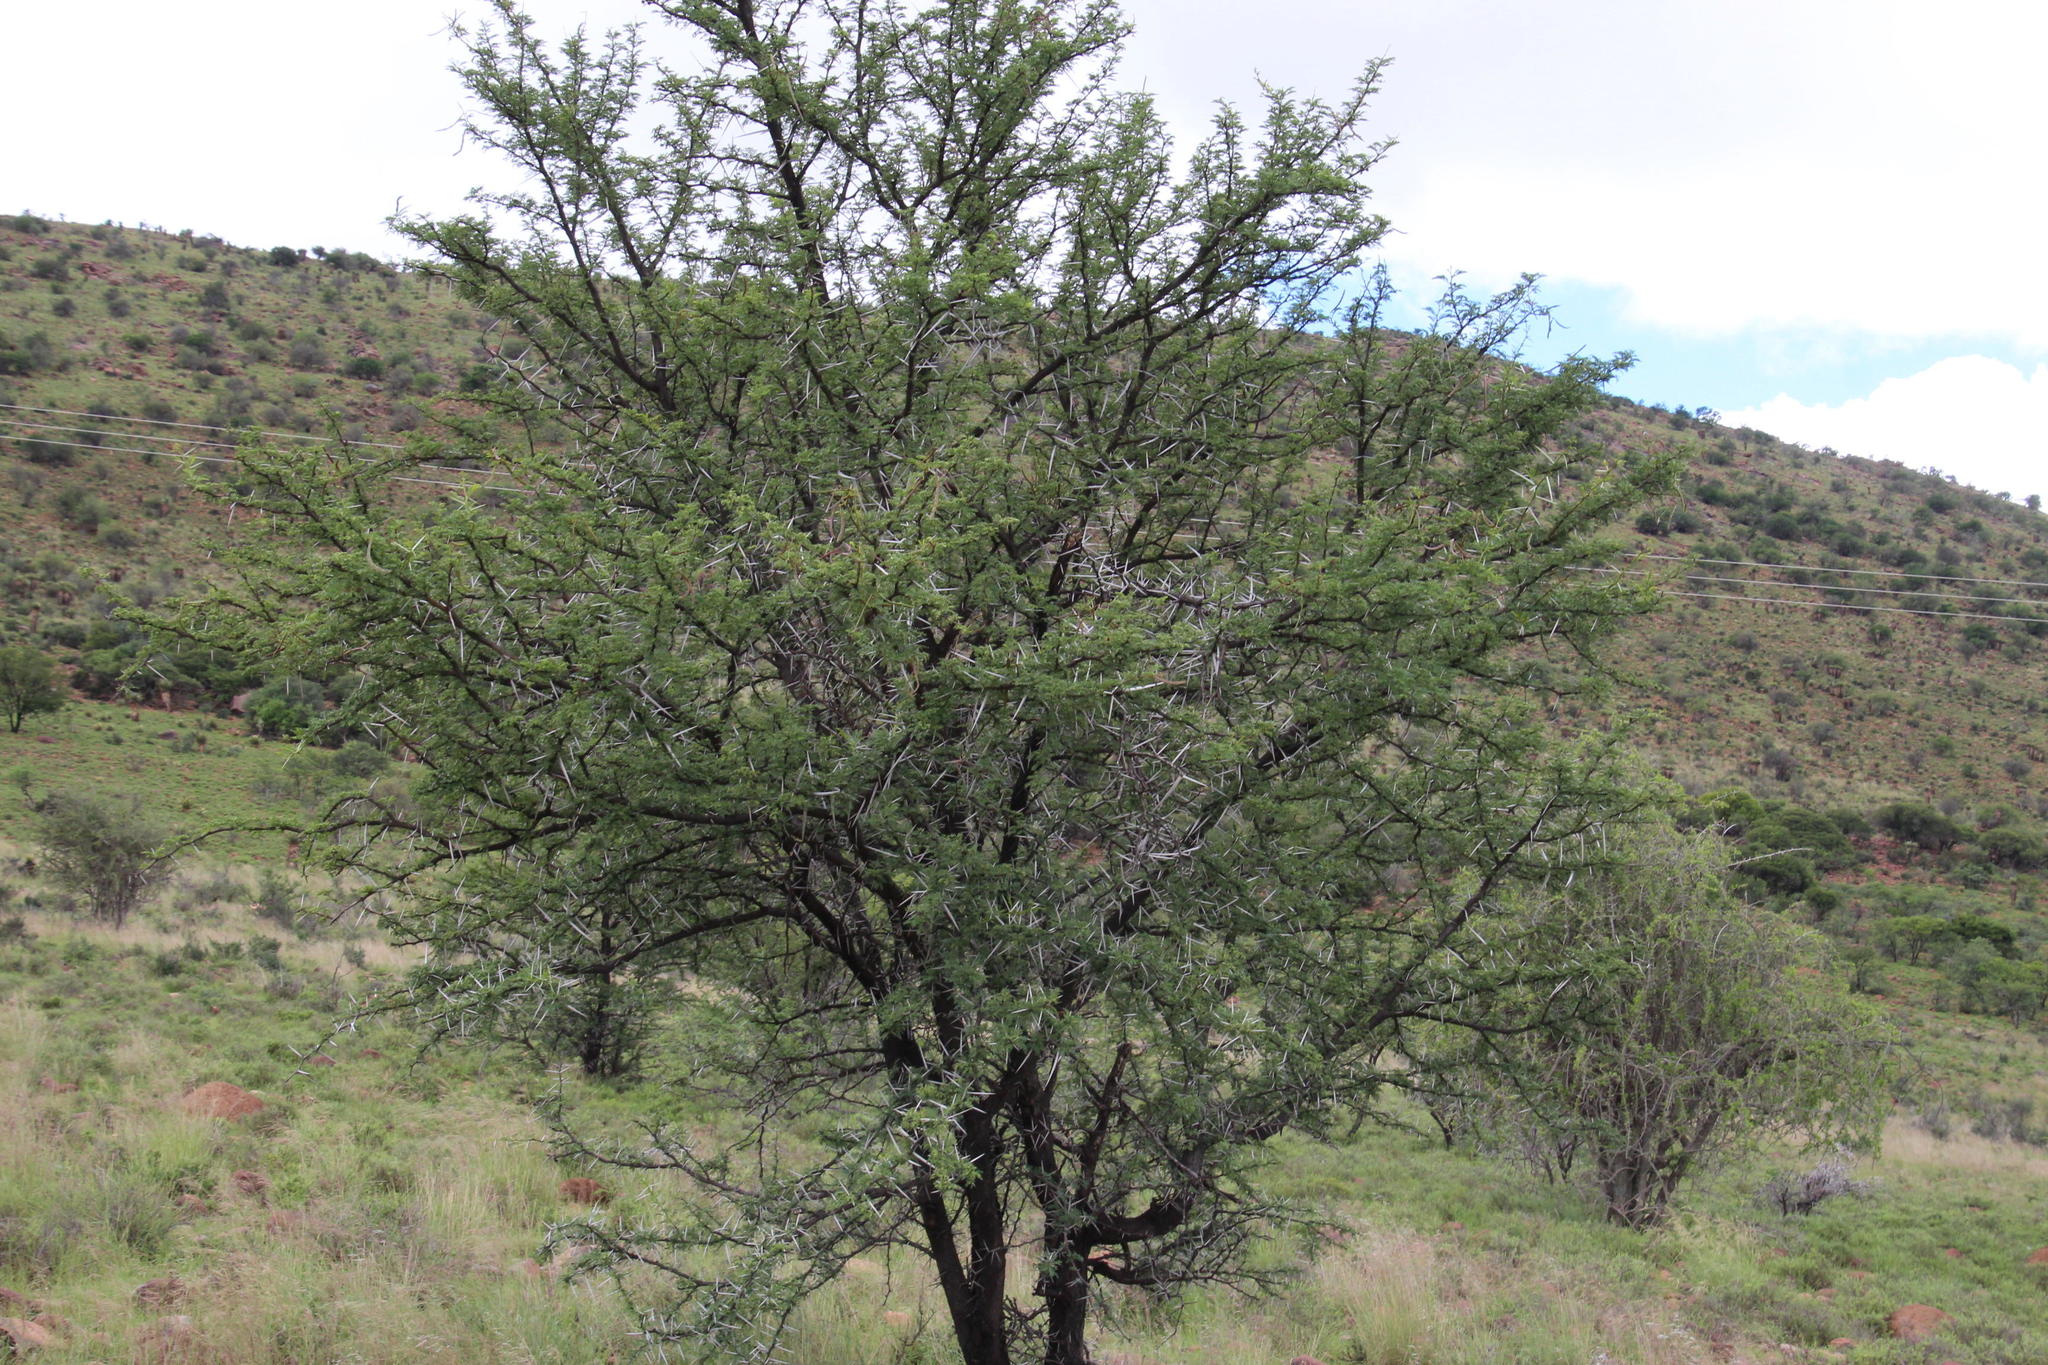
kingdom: Plantae
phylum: Tracheophyta
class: Magnoliopsida
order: Fabales
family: Fabaceae
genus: Vachellia
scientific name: Vachellia karroo
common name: Sweet thorn
